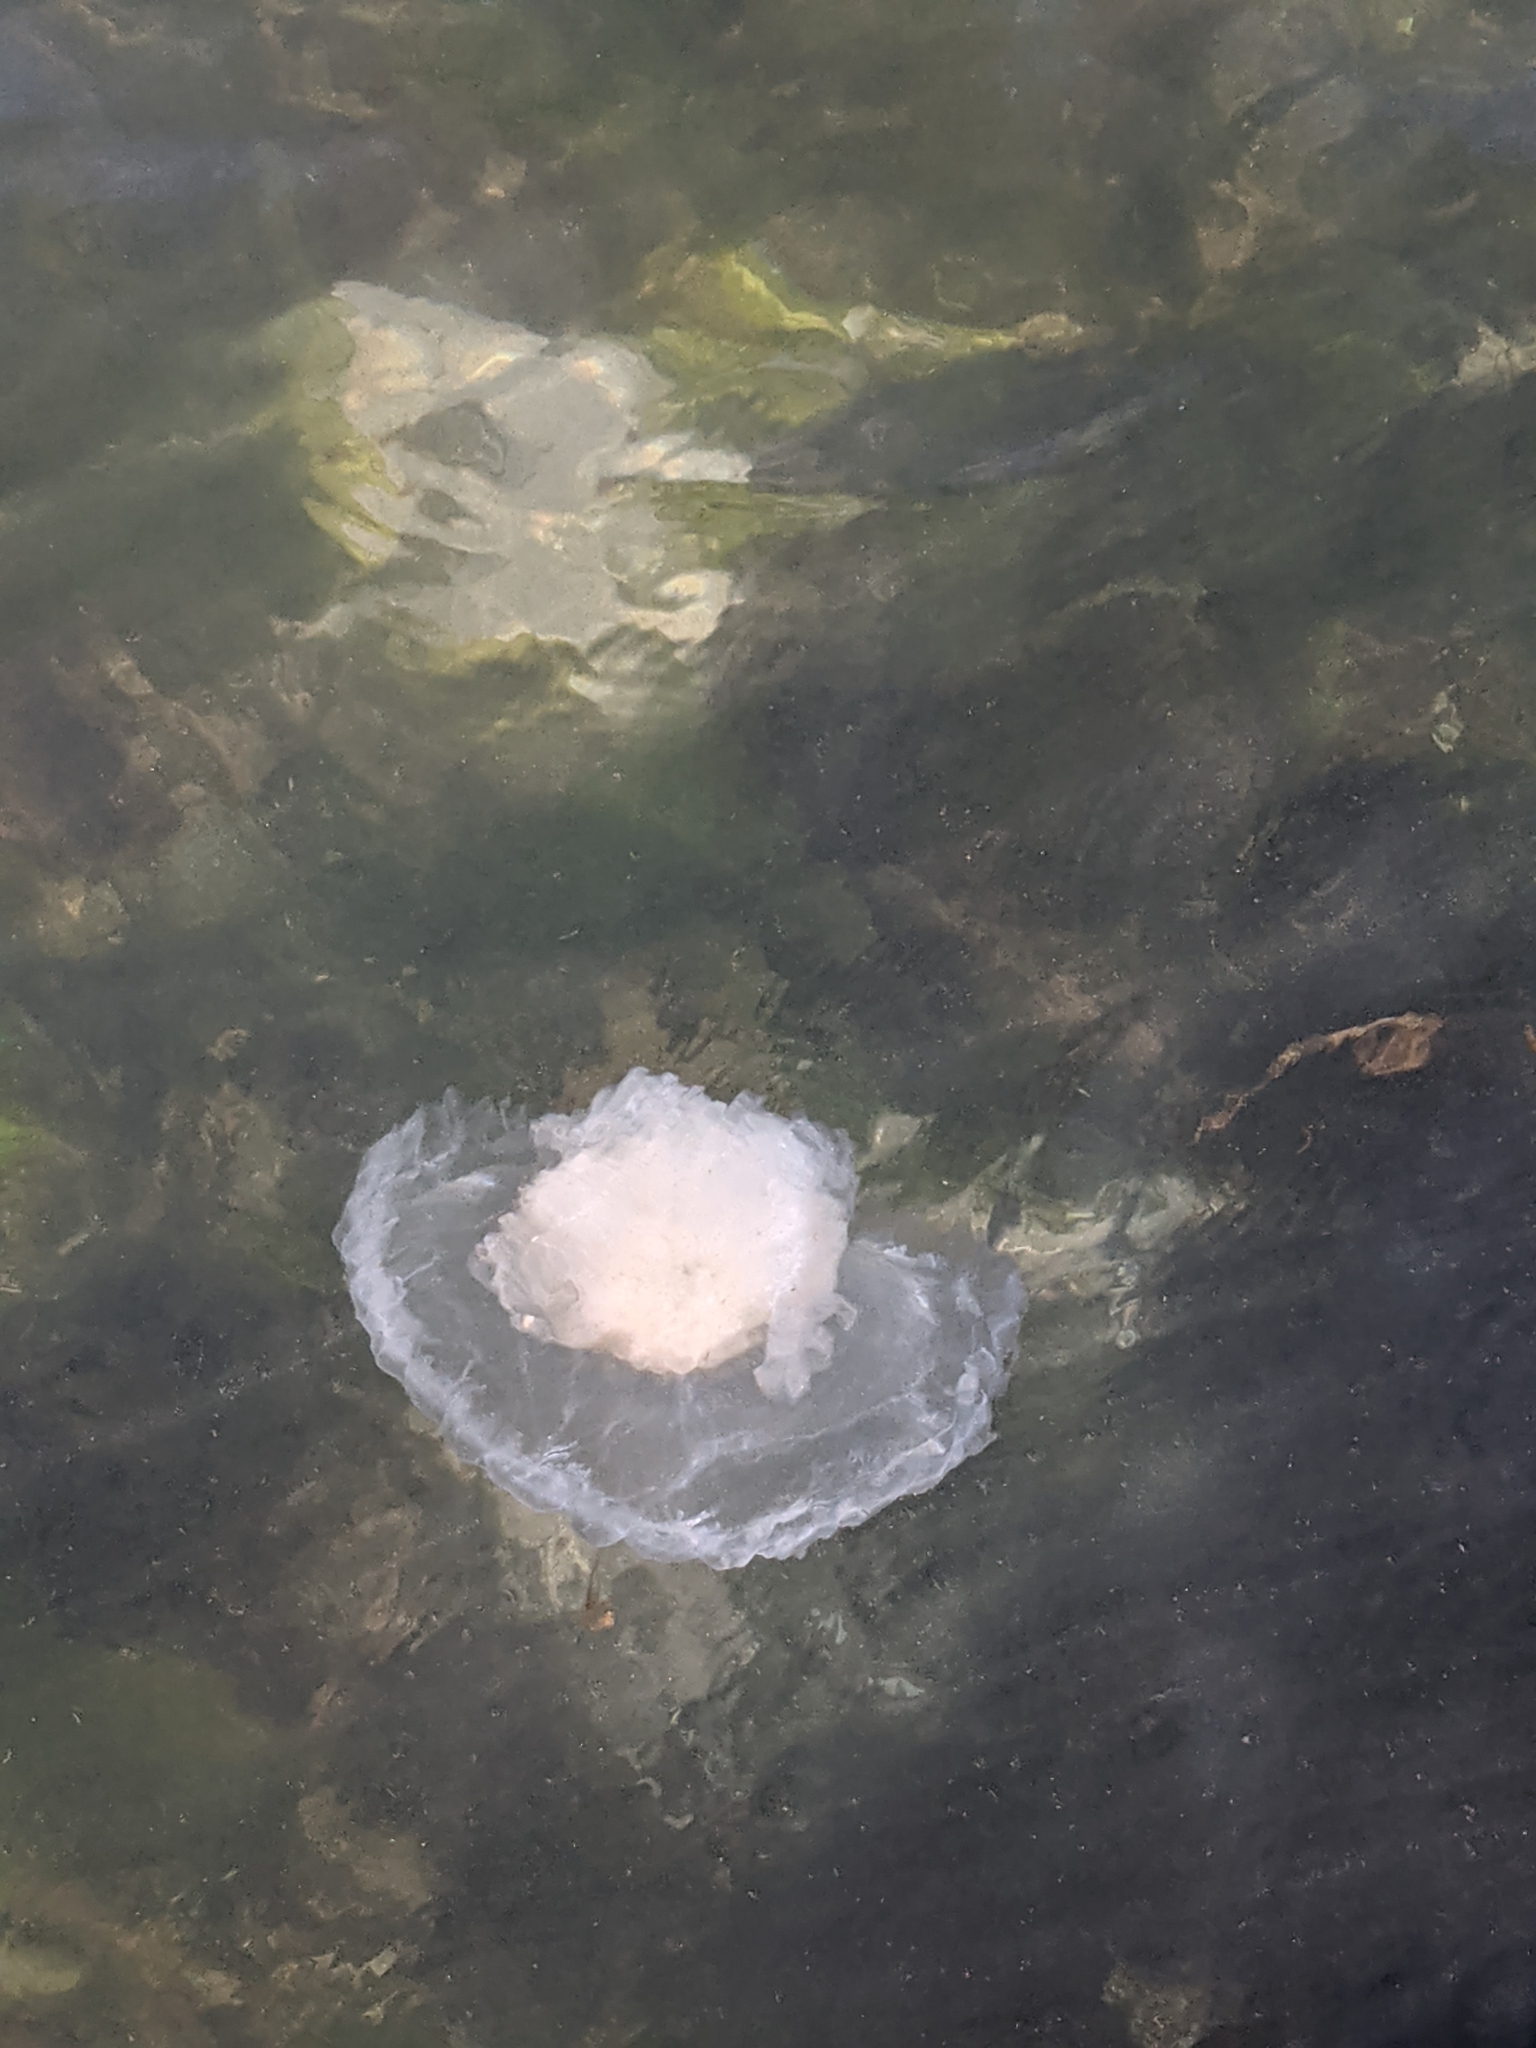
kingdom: Animalia
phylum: Cnidaria
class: Scyphozoa
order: Semaeostomeae
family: Phacellophoridae
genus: Phacellophora
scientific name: Phacellophora camtschatica
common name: Fried-egg jellyfish
